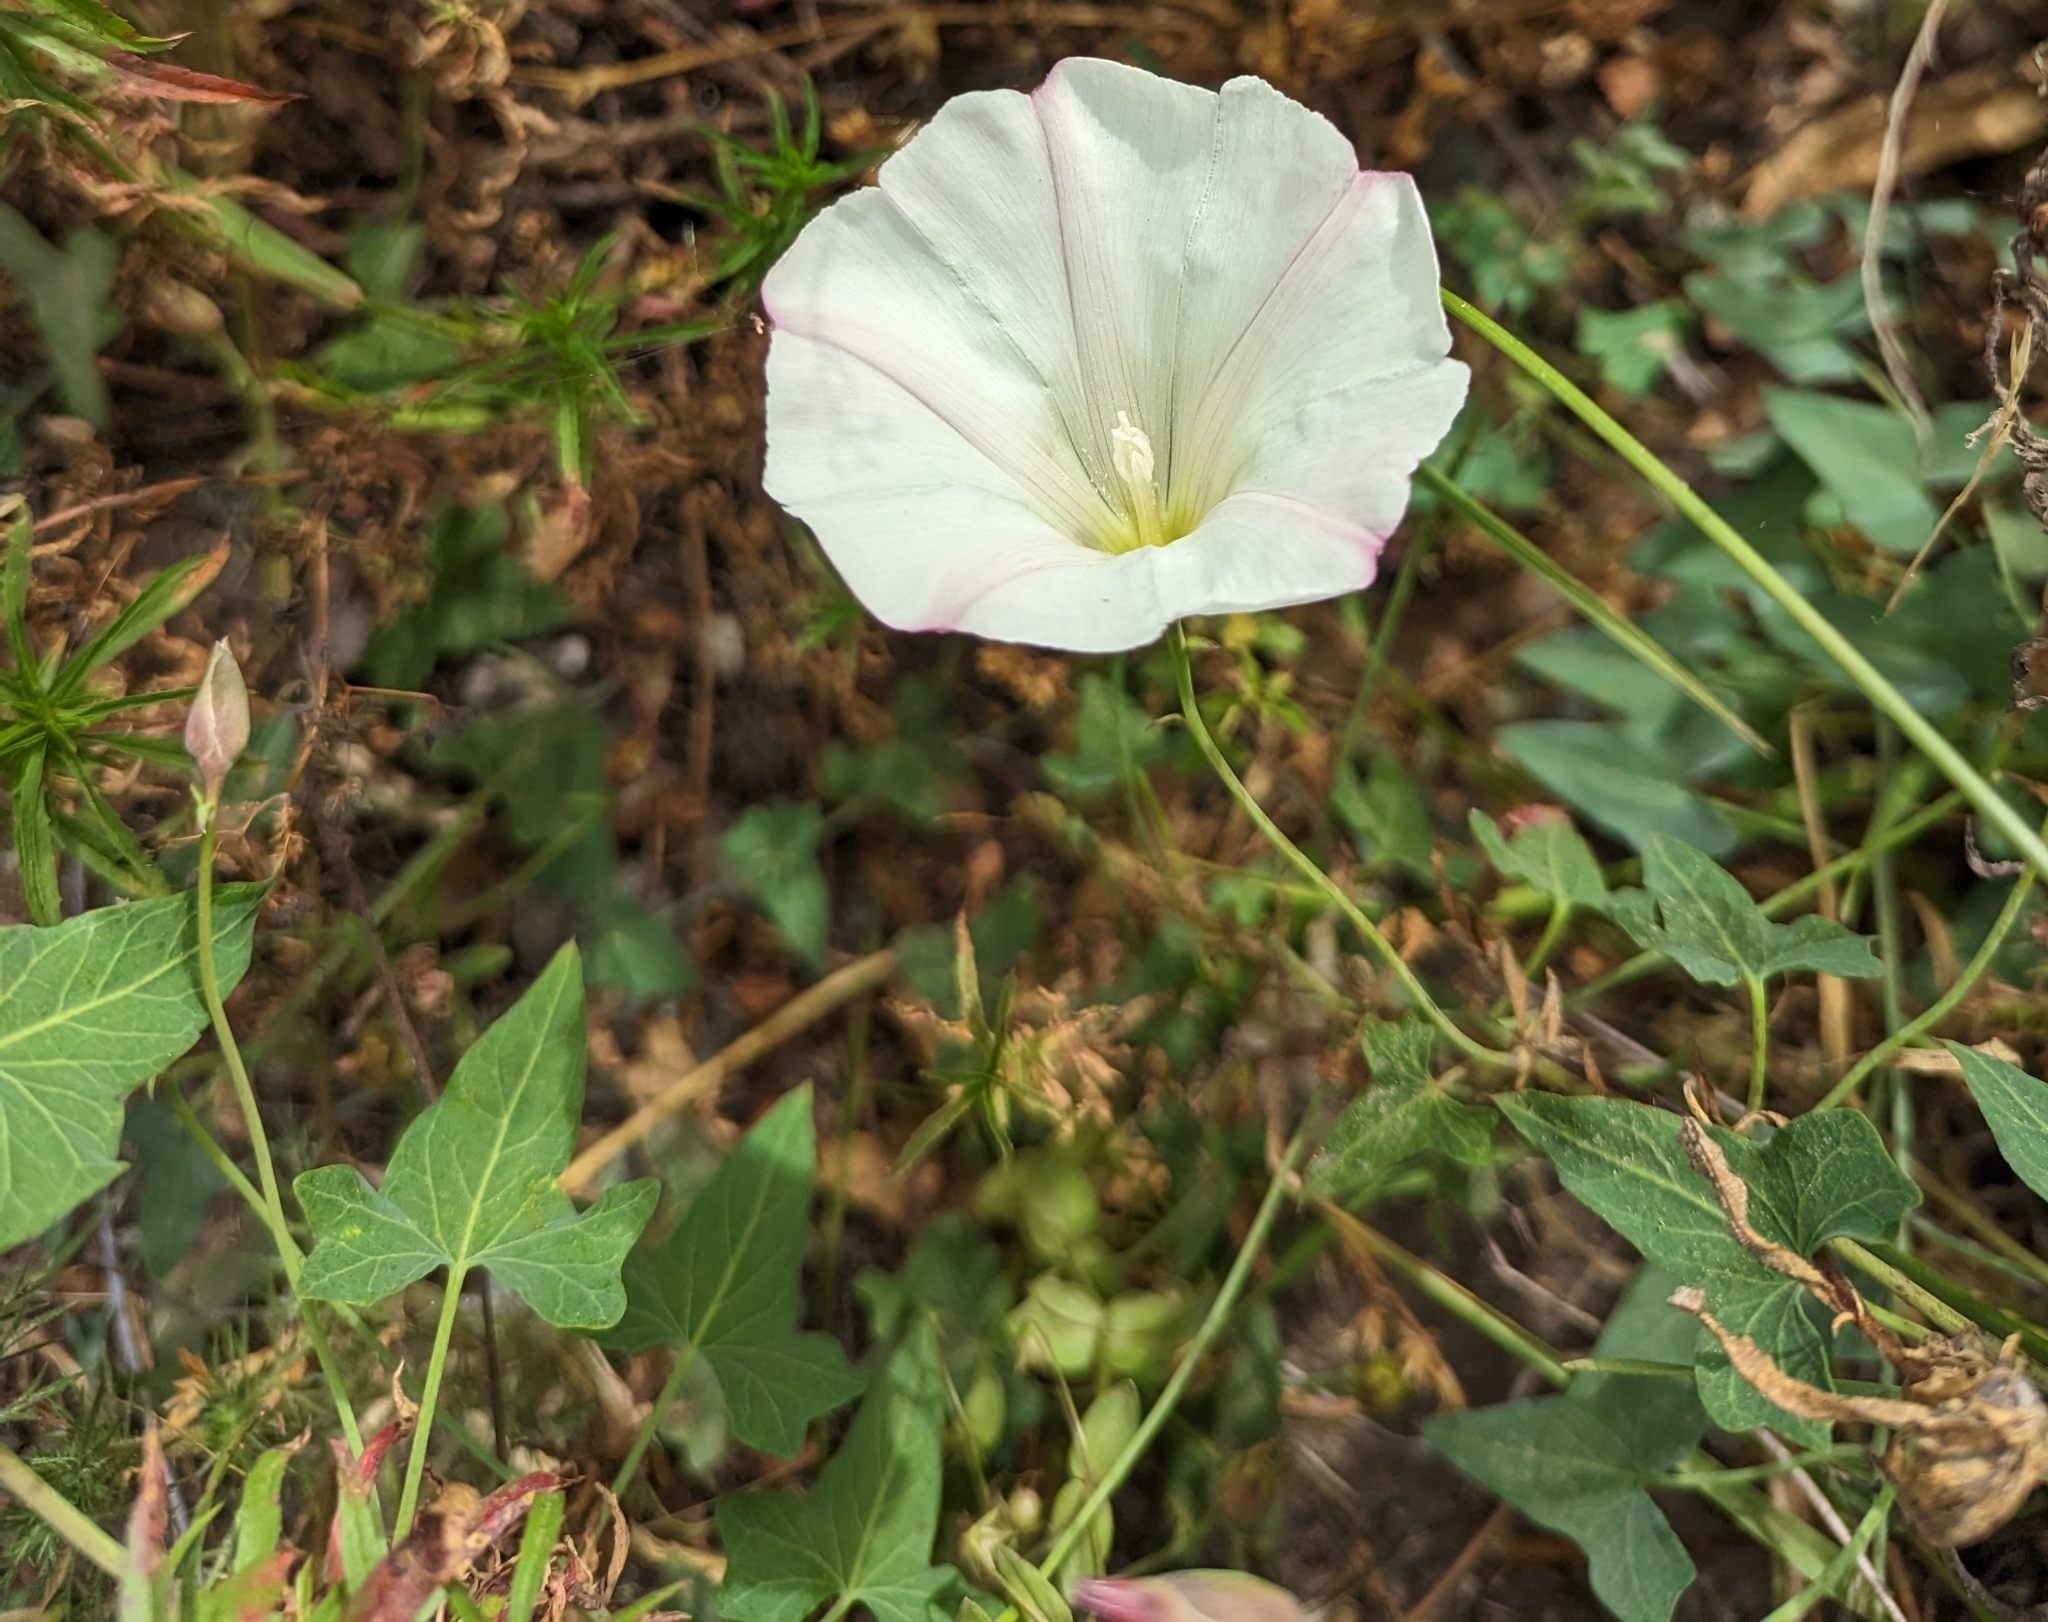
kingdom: Plantae
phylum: Tracheophyta
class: Magnoliopsida
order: Solanales
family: Convolvulaceae
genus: Calystegia
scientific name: Calystegia purpurata
